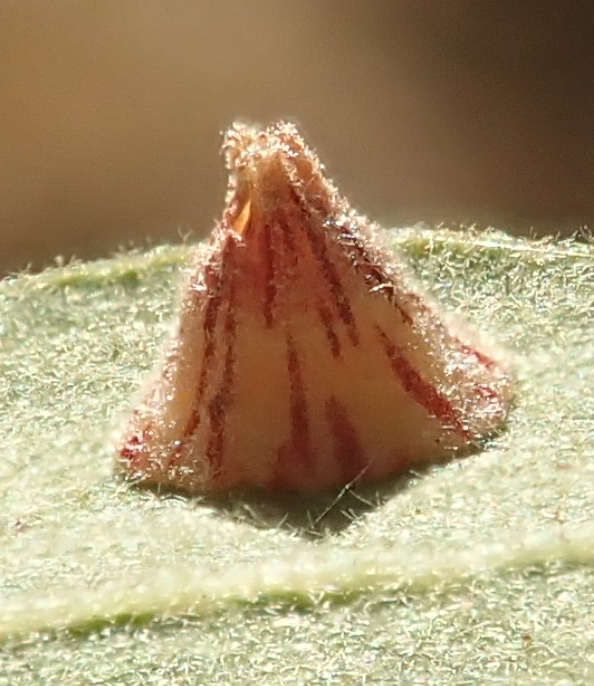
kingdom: Animalia
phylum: Arthropoda
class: Insecta
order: Hymenoptera
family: Cynipidae
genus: Andricus
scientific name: Andricus
